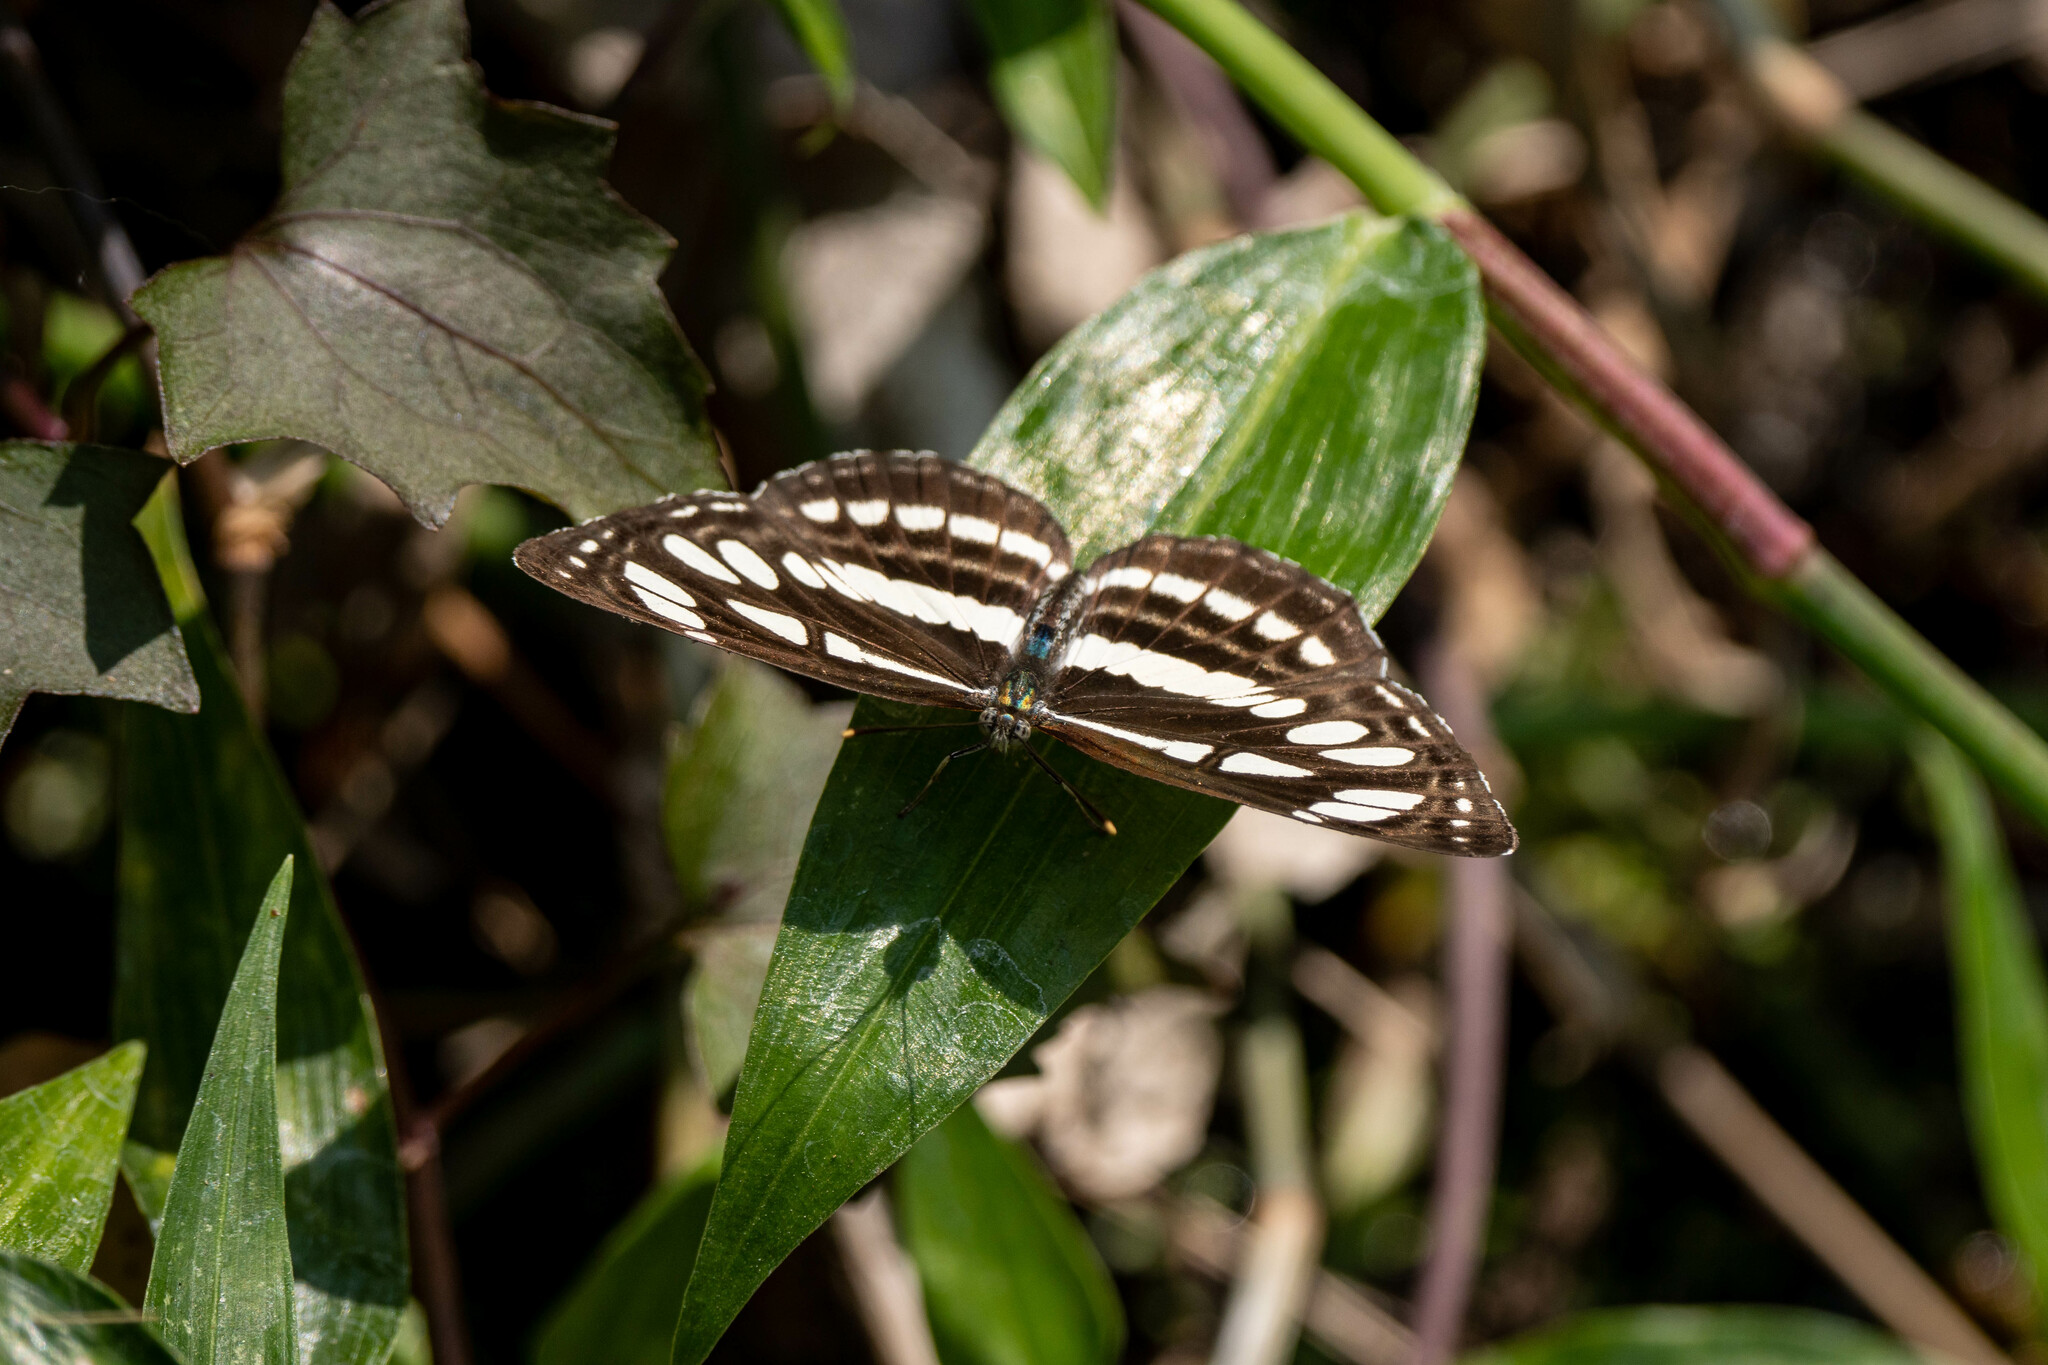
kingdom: Animalia
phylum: Arthropoda
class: Insecta
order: Lepidoptera
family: Nymphalidae
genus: Neptis
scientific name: Neptis hylas
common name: Common sailer
